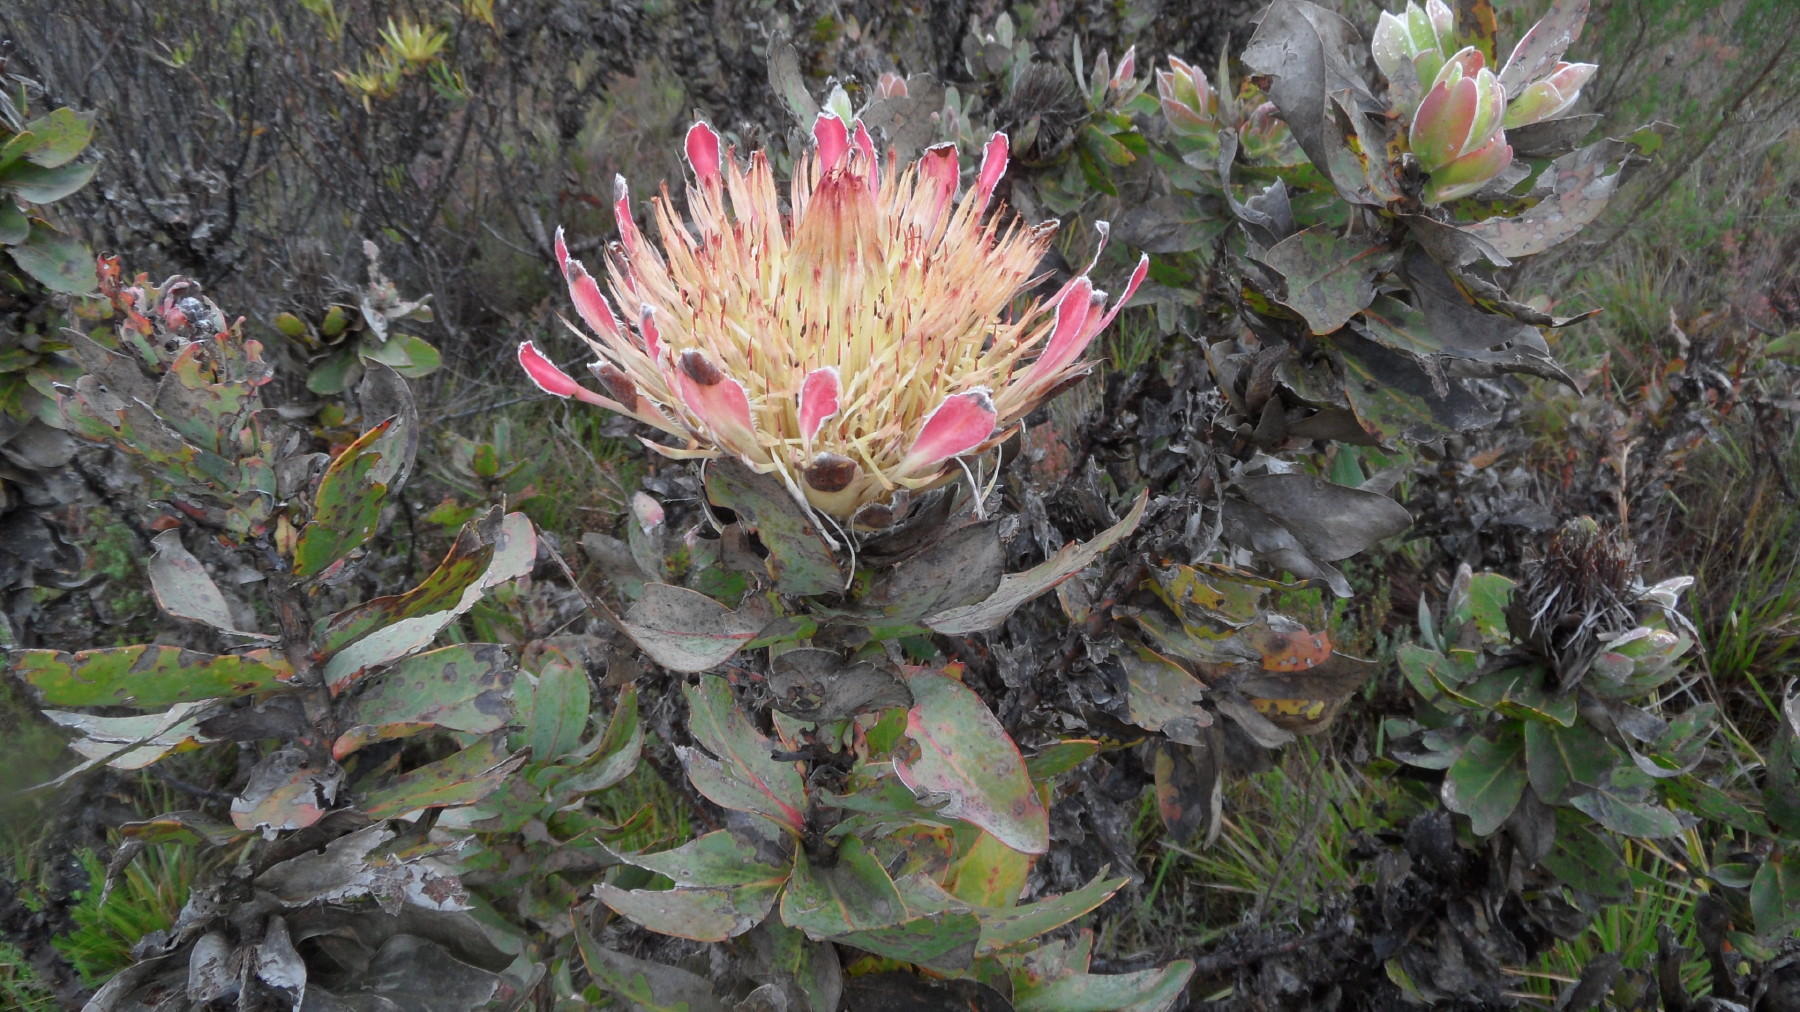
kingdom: Plantae
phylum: Tracheophyta
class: Magnoliopsida
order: Proteales
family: Proteaceae
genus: Protea
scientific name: Protea eximia
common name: Broad-leaved sugarbush
